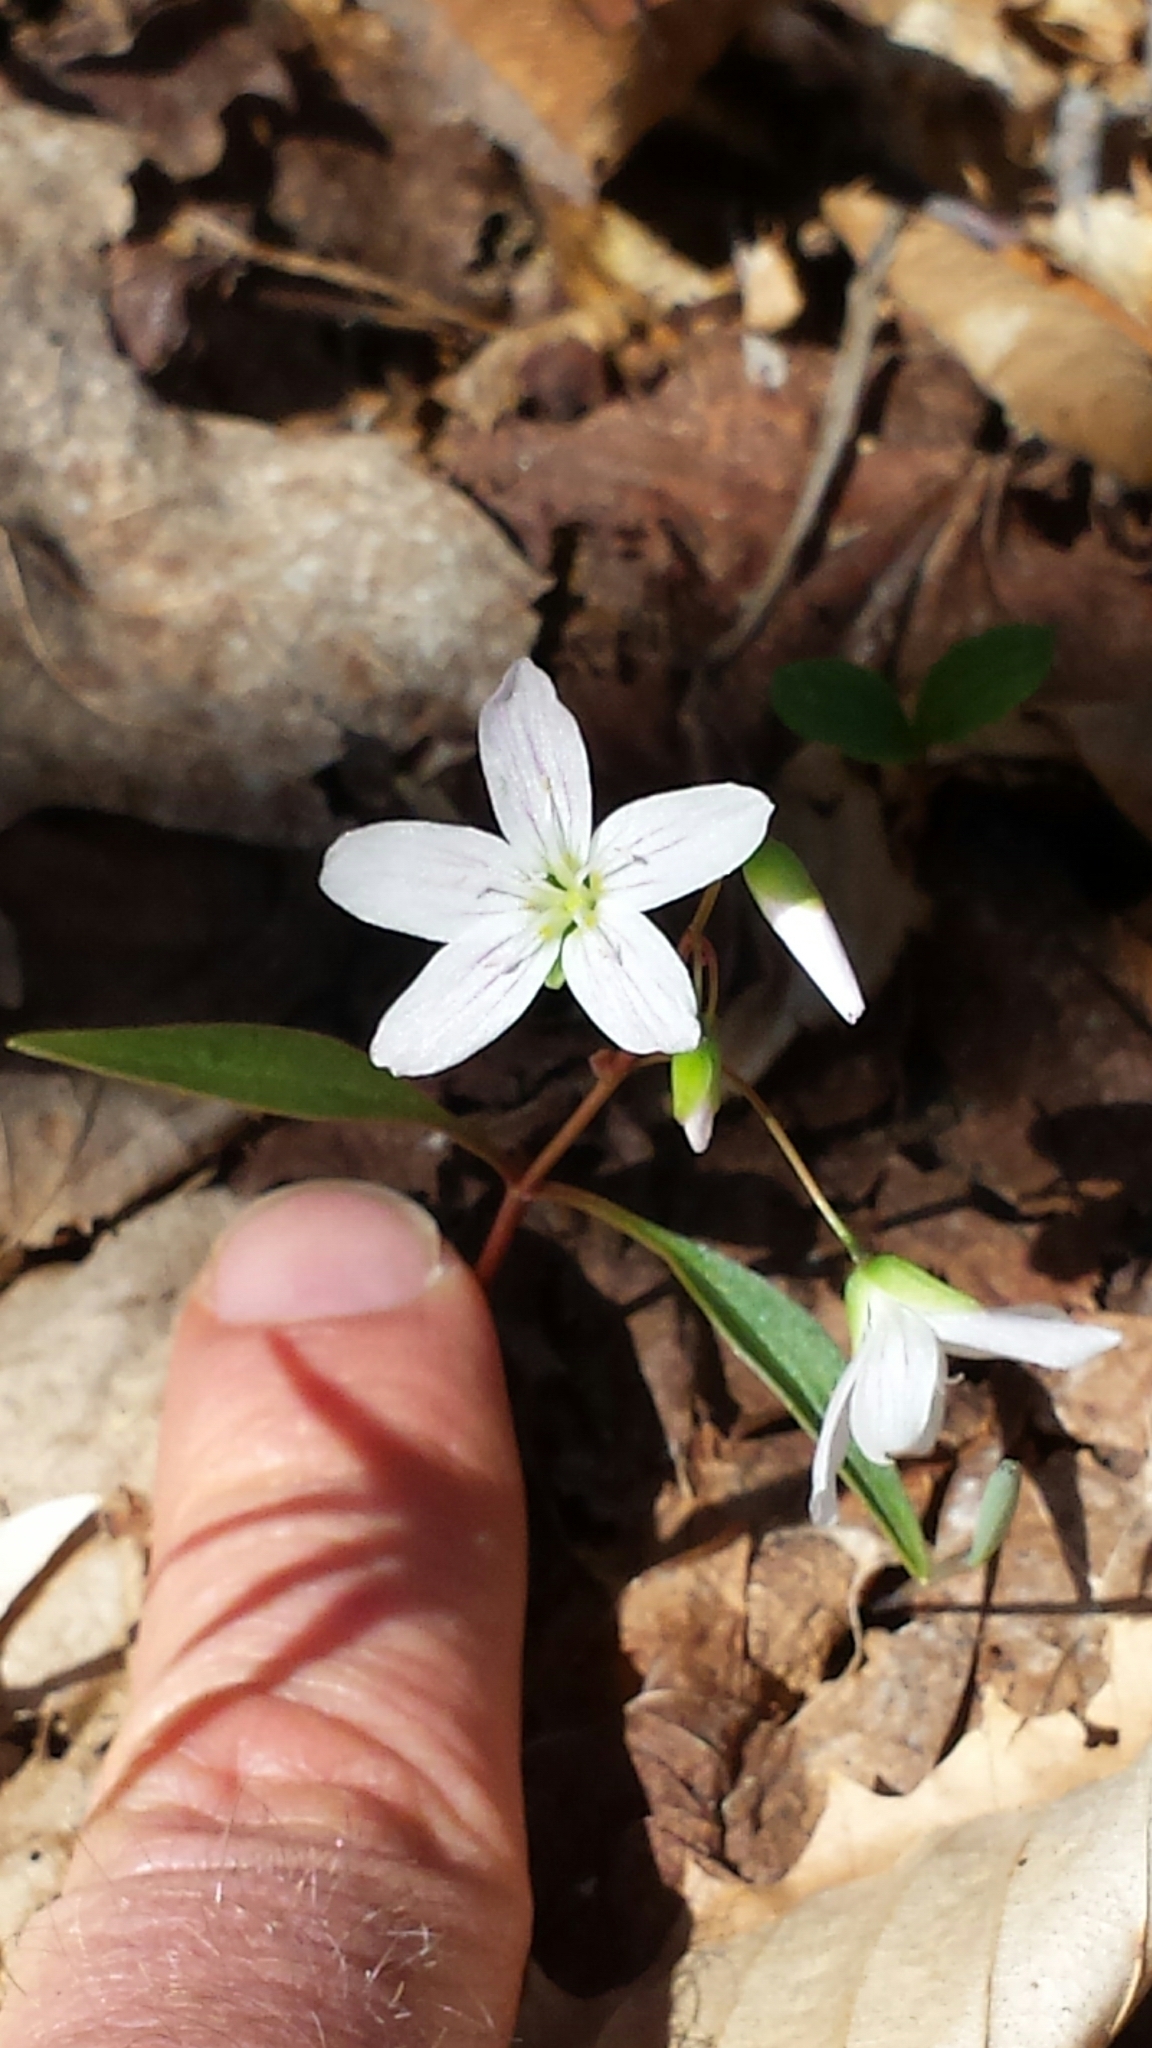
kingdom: Plantae
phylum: Tracheophyta
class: Magnoliopsida
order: Caryophyllales
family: Montiaceae
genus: Claytonia
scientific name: Claytonia caroliniana
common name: Carolina spring beauty
